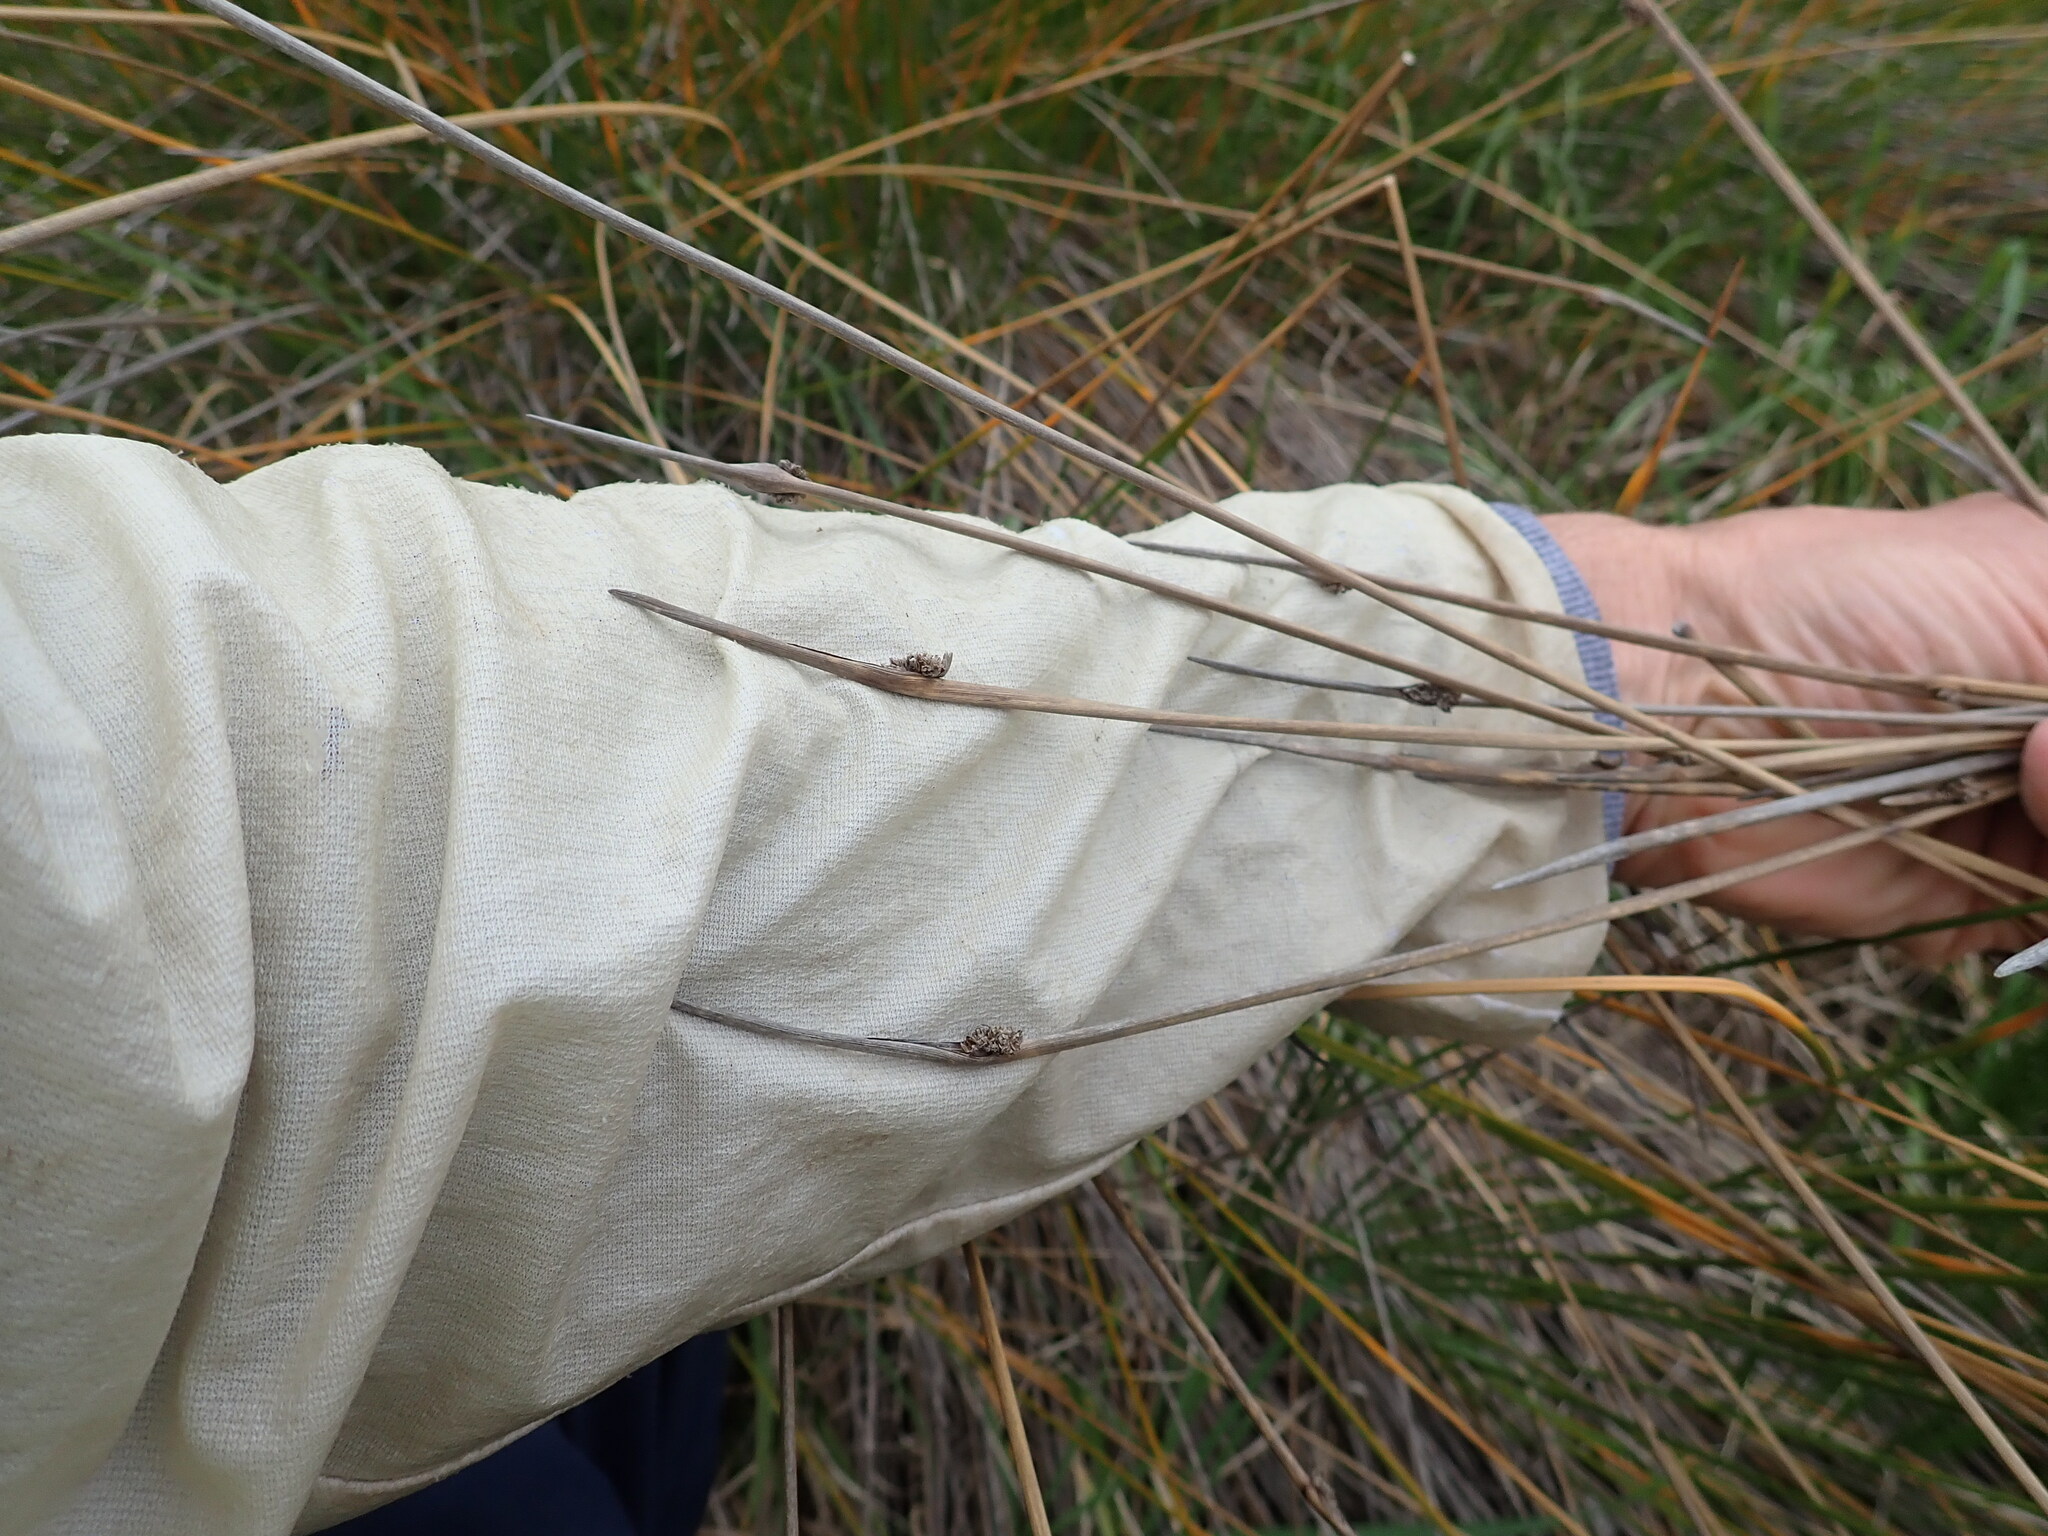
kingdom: Plantae
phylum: Tracheophyta
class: Liliopsida
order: Poales
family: Cyperaceae
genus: Ficinia
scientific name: Ficinia nodosa
